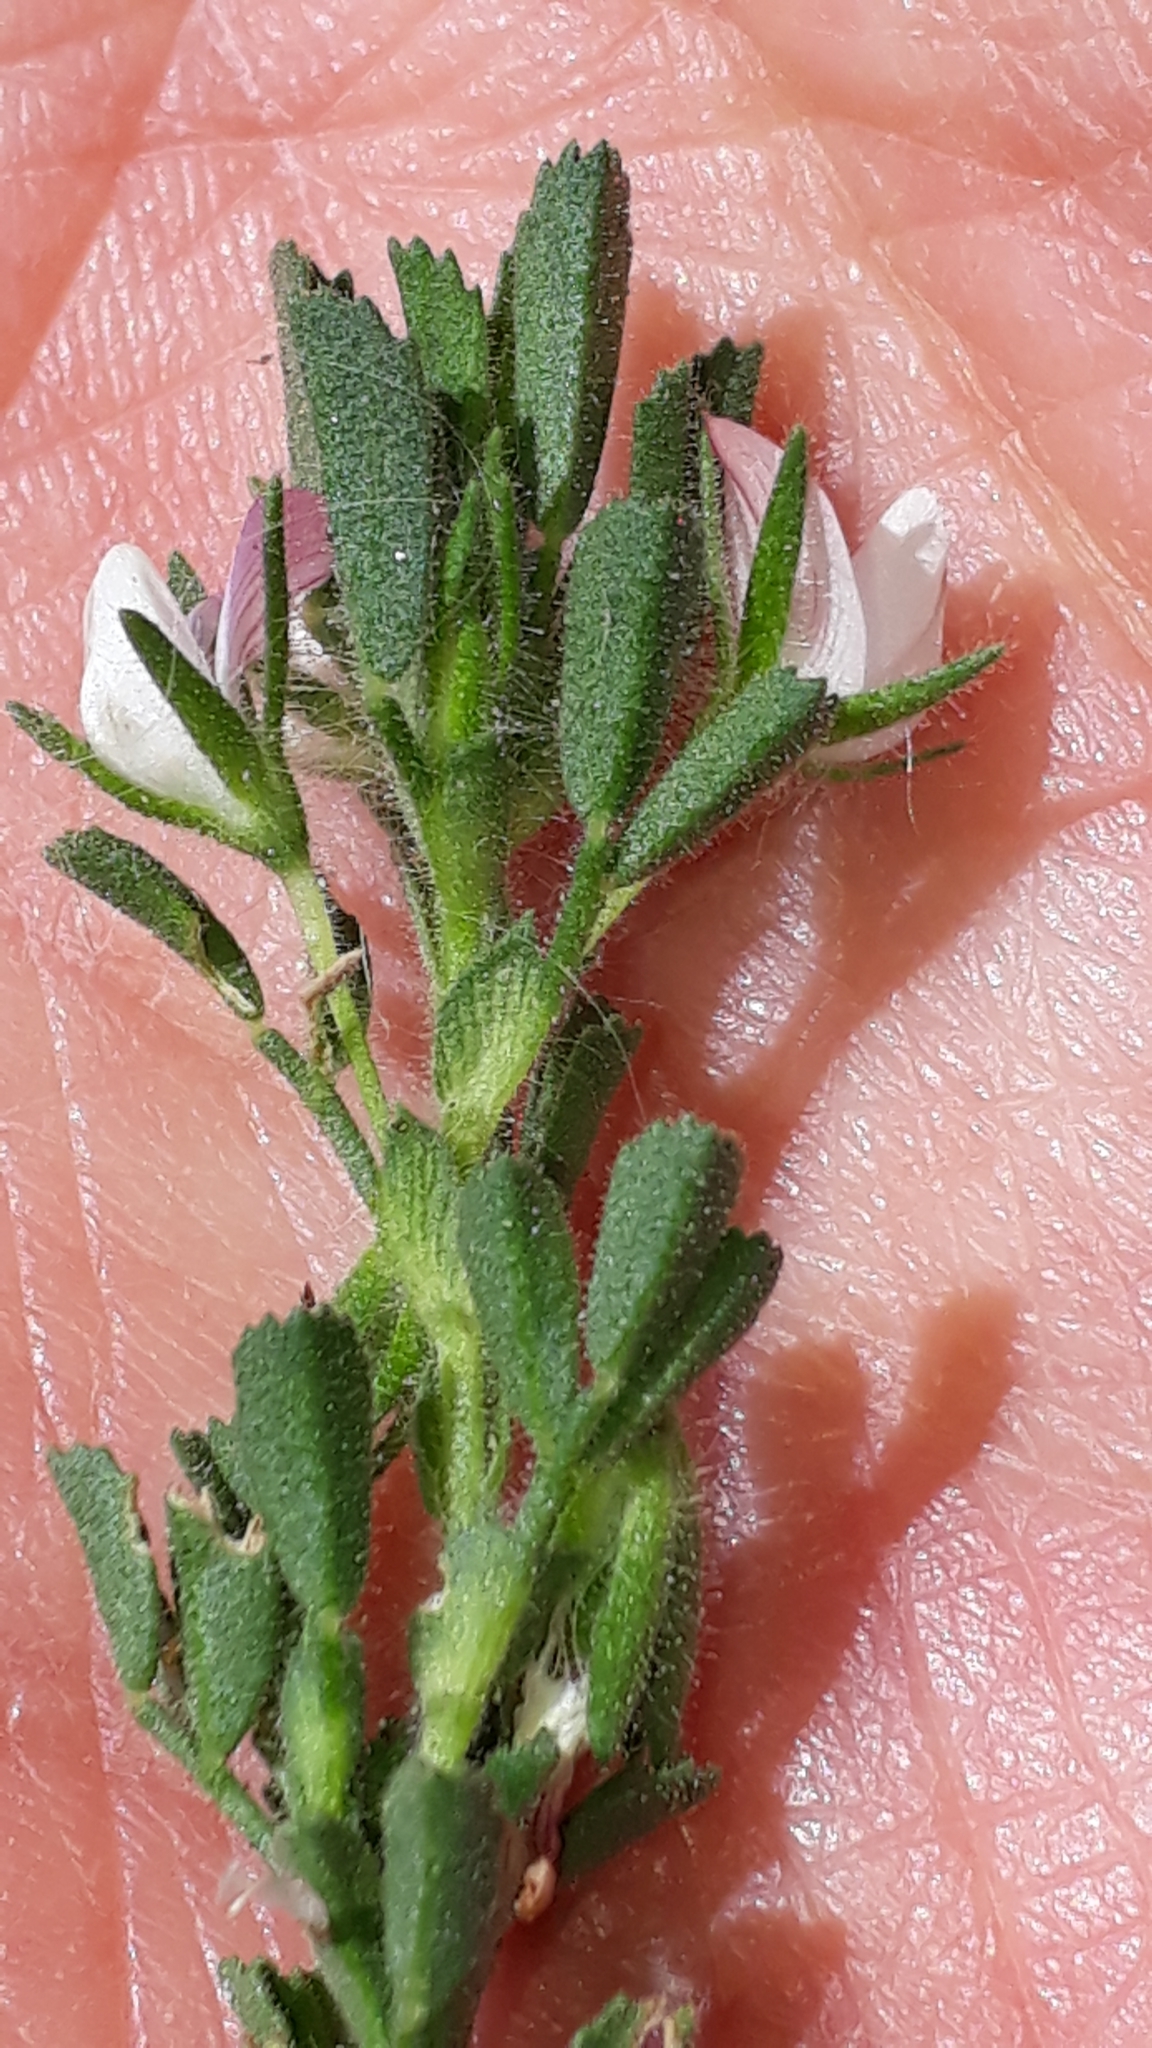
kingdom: Plantae
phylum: Tracheophyta
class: Magnoliopsida
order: Fabales
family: Fabaceae
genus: Ononis
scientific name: Ononis reclinata
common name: Small restharrow
